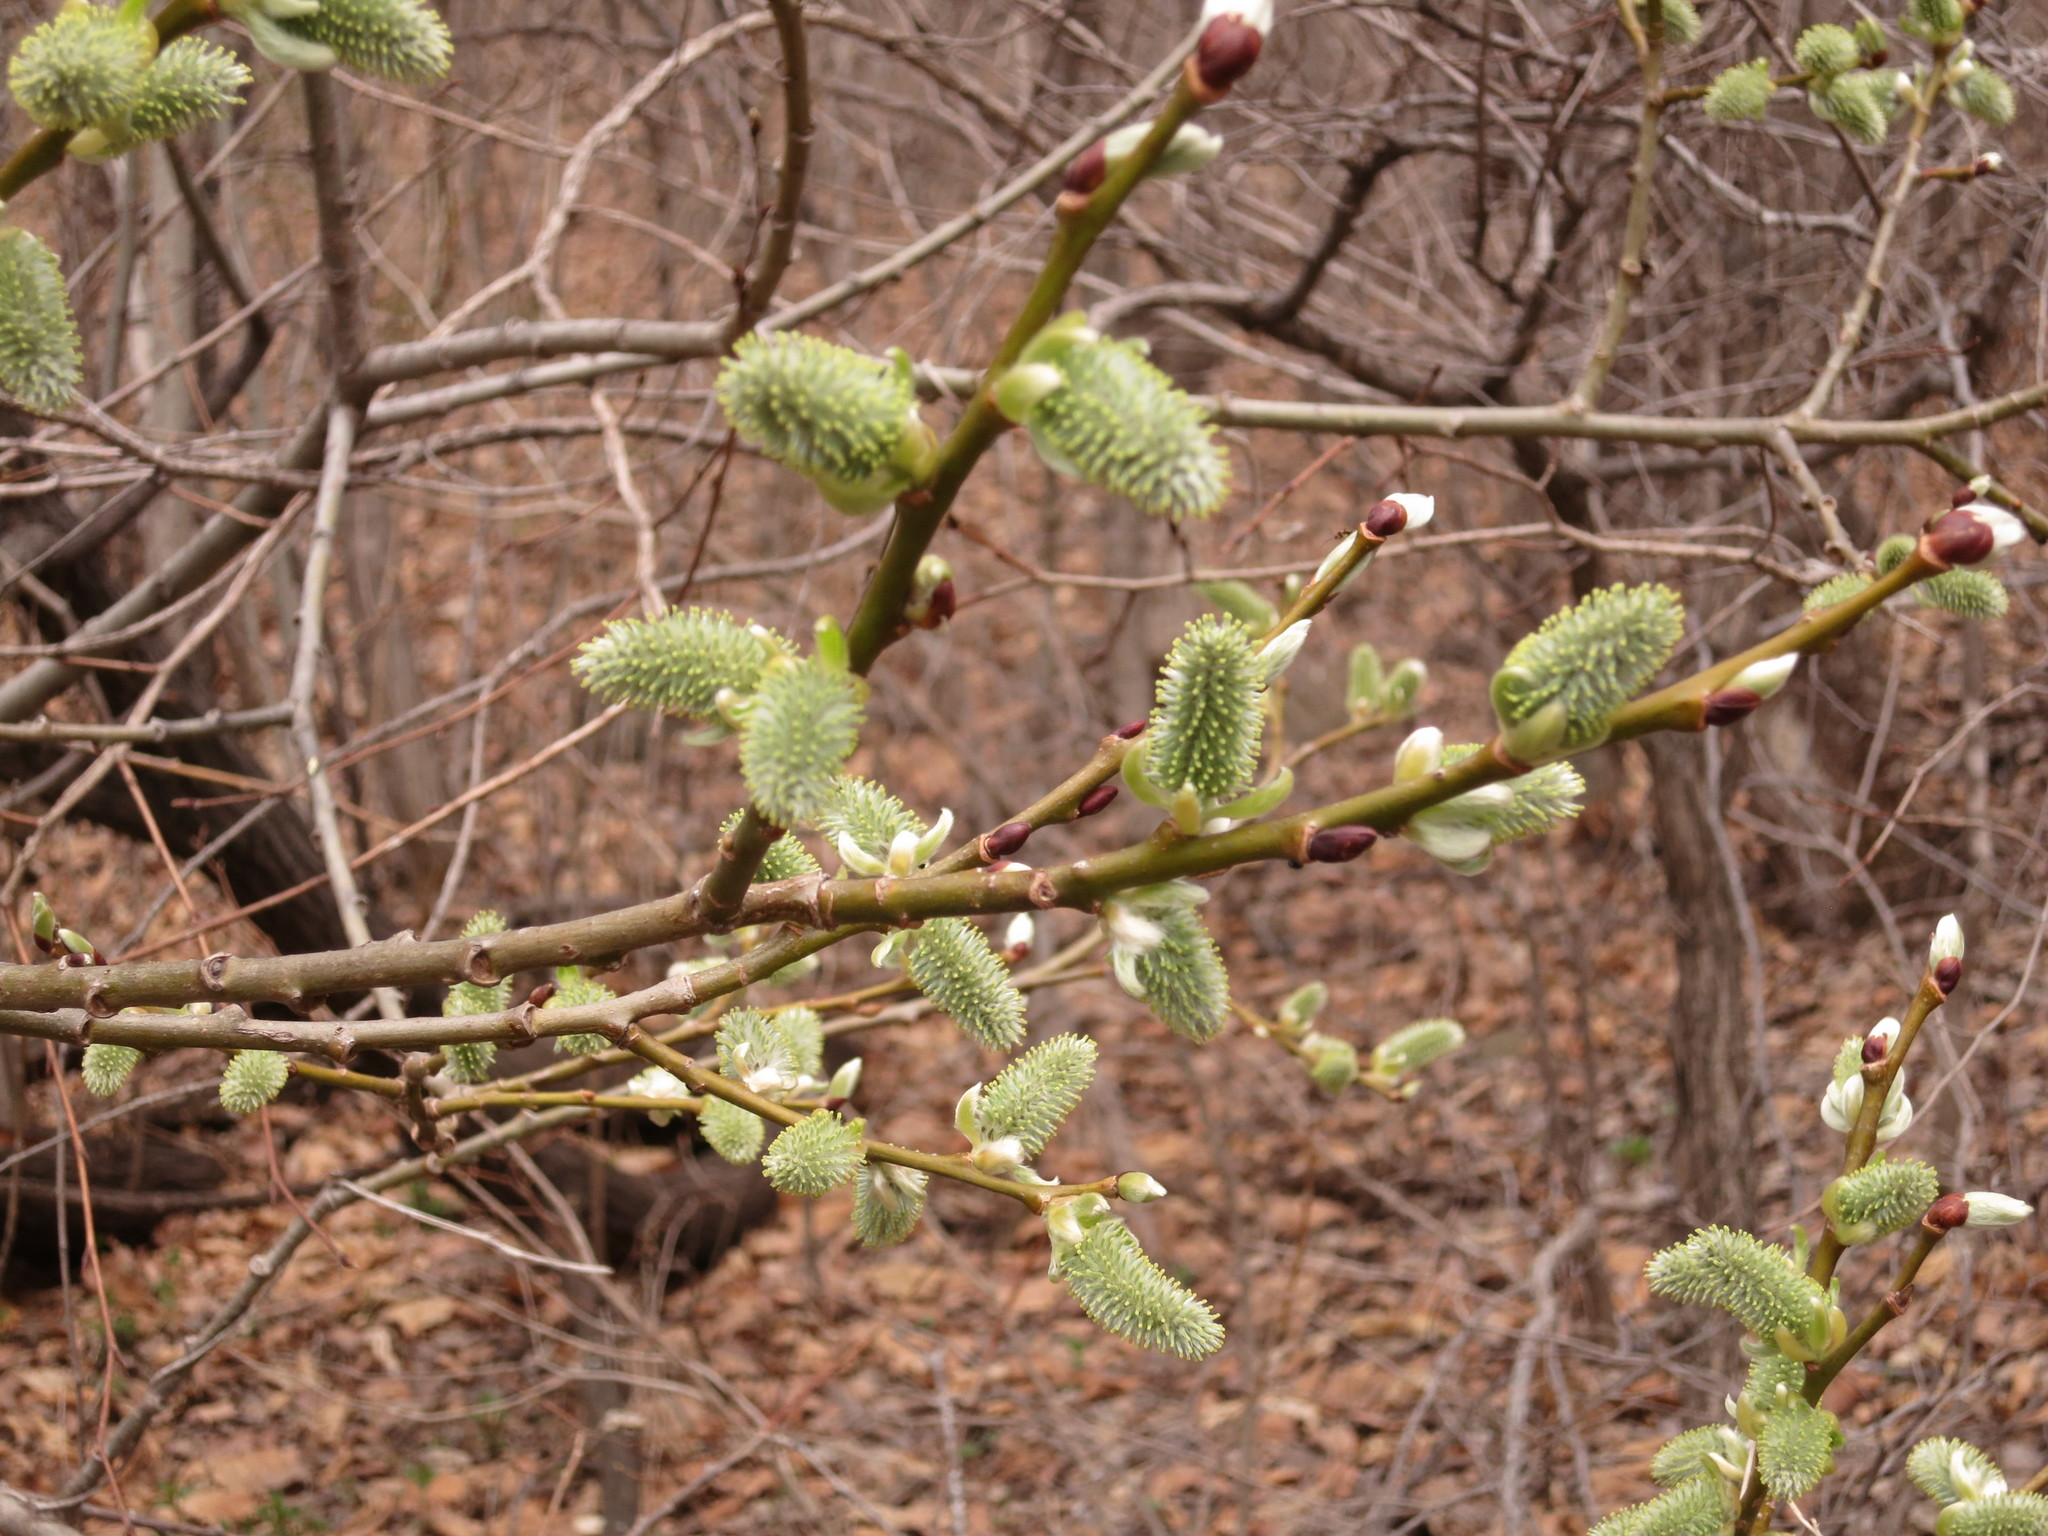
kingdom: Plantae
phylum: Tracheophyta
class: Magnoliopsida
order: Malpighiales
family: Salicaceae
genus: Salix
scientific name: Salix caprea
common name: Goat willow
